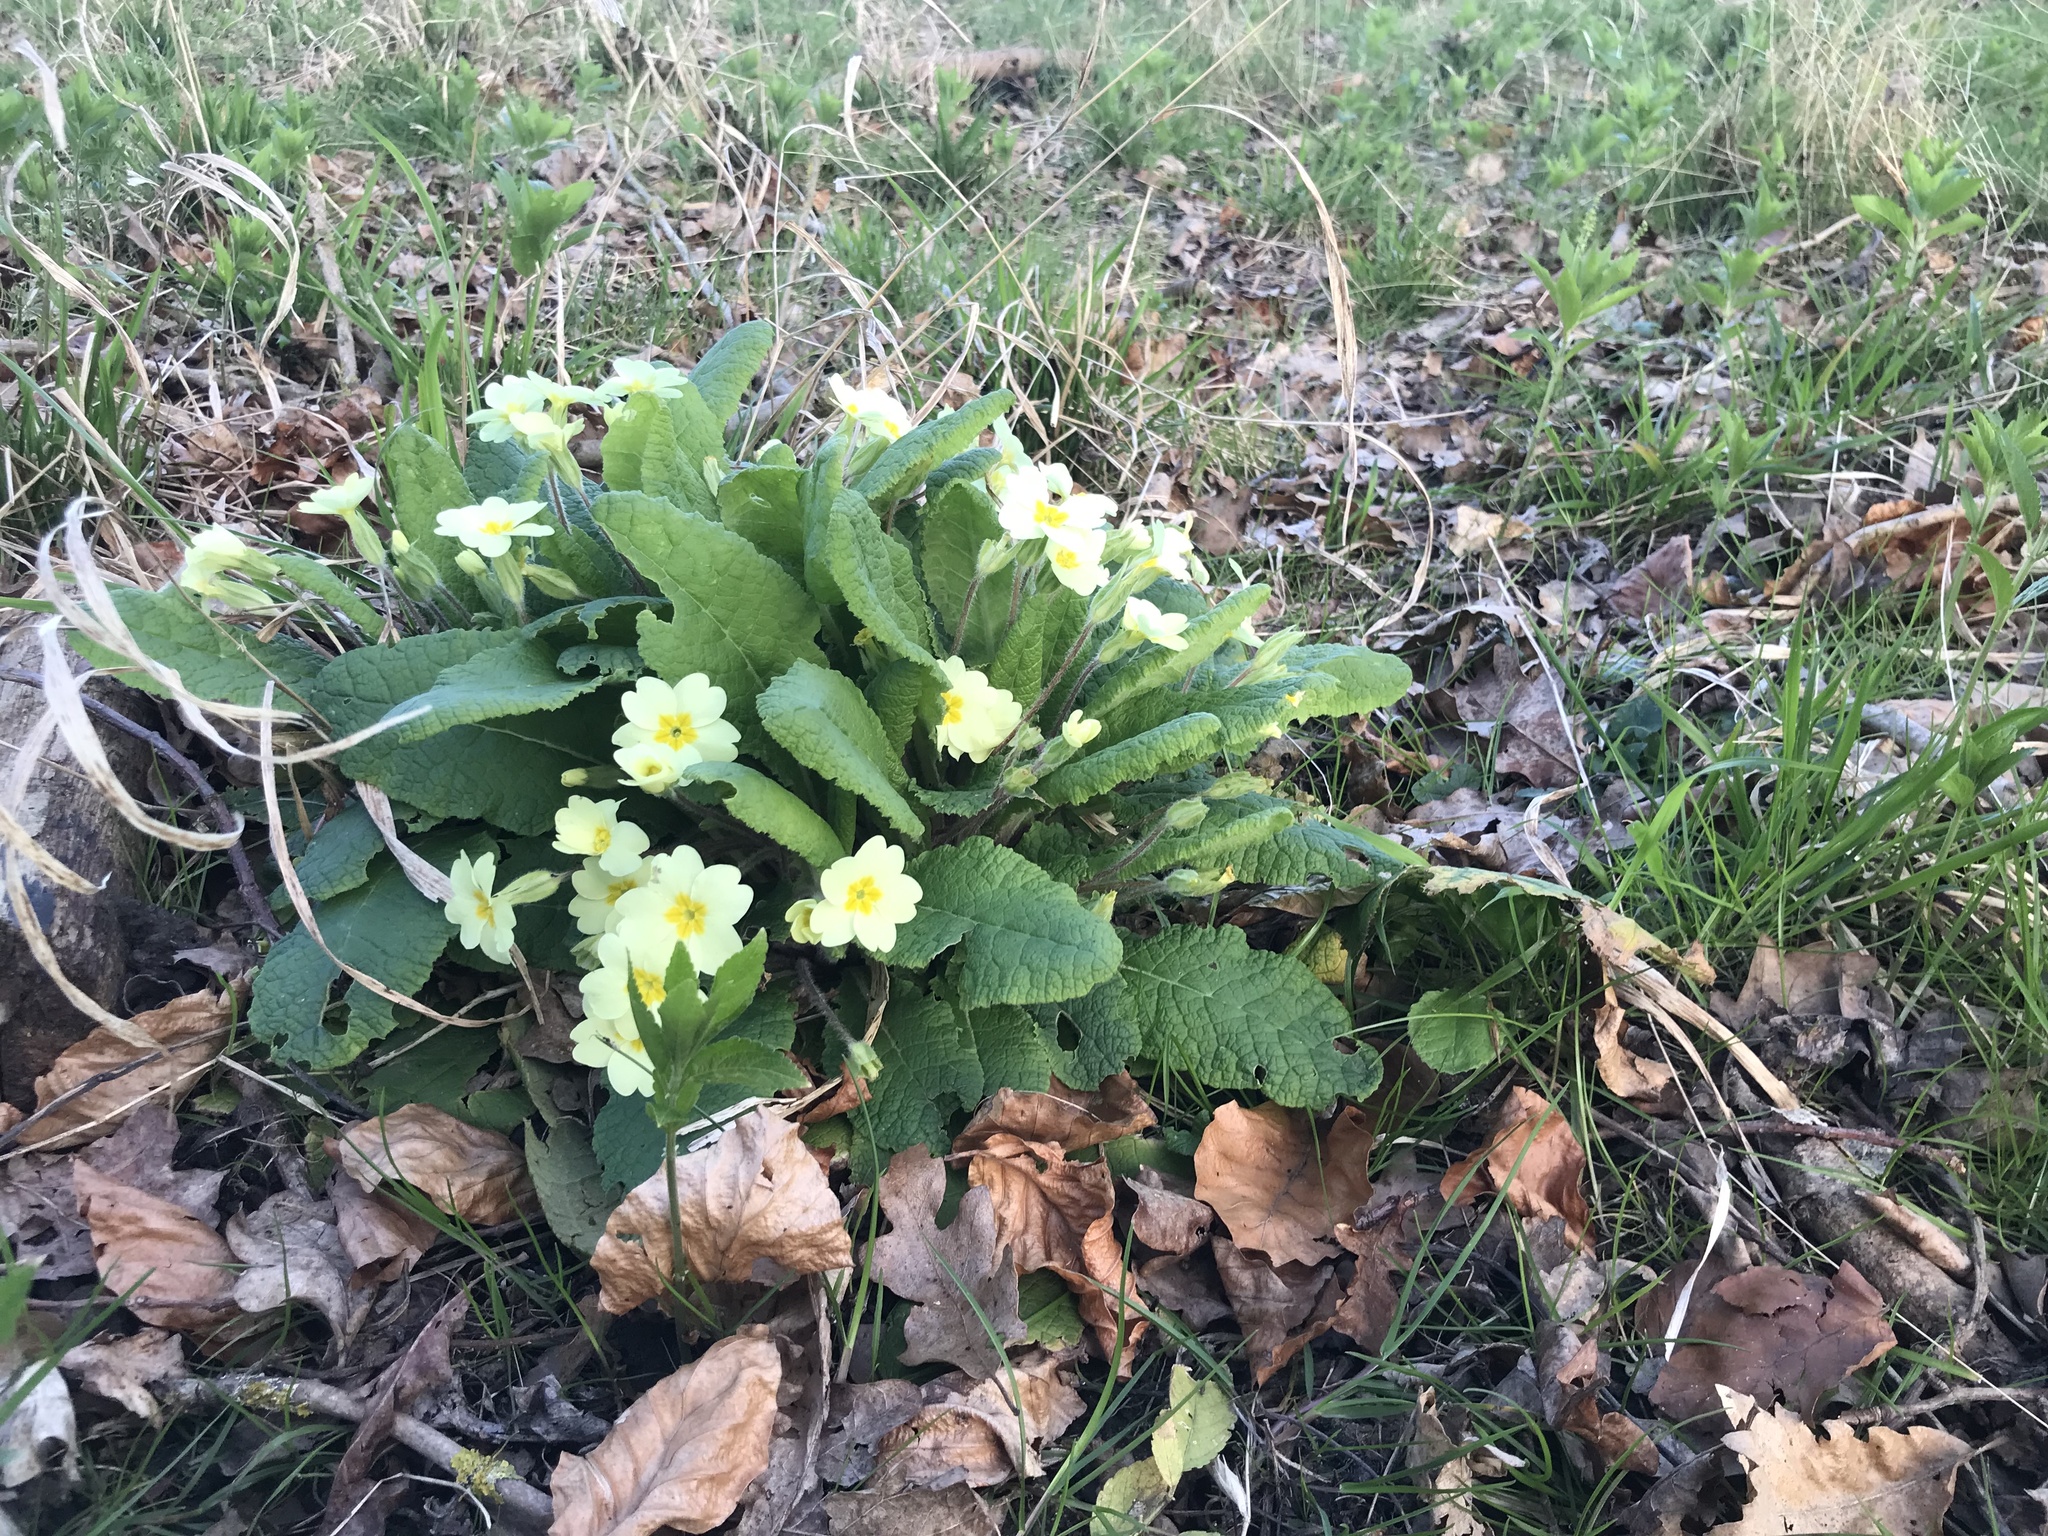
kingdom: Plantae
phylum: Tracheophyta
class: Magnoliopsida
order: Ericales
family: Primulaceae
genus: Primula
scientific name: Primula vulgaris
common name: Primrose
